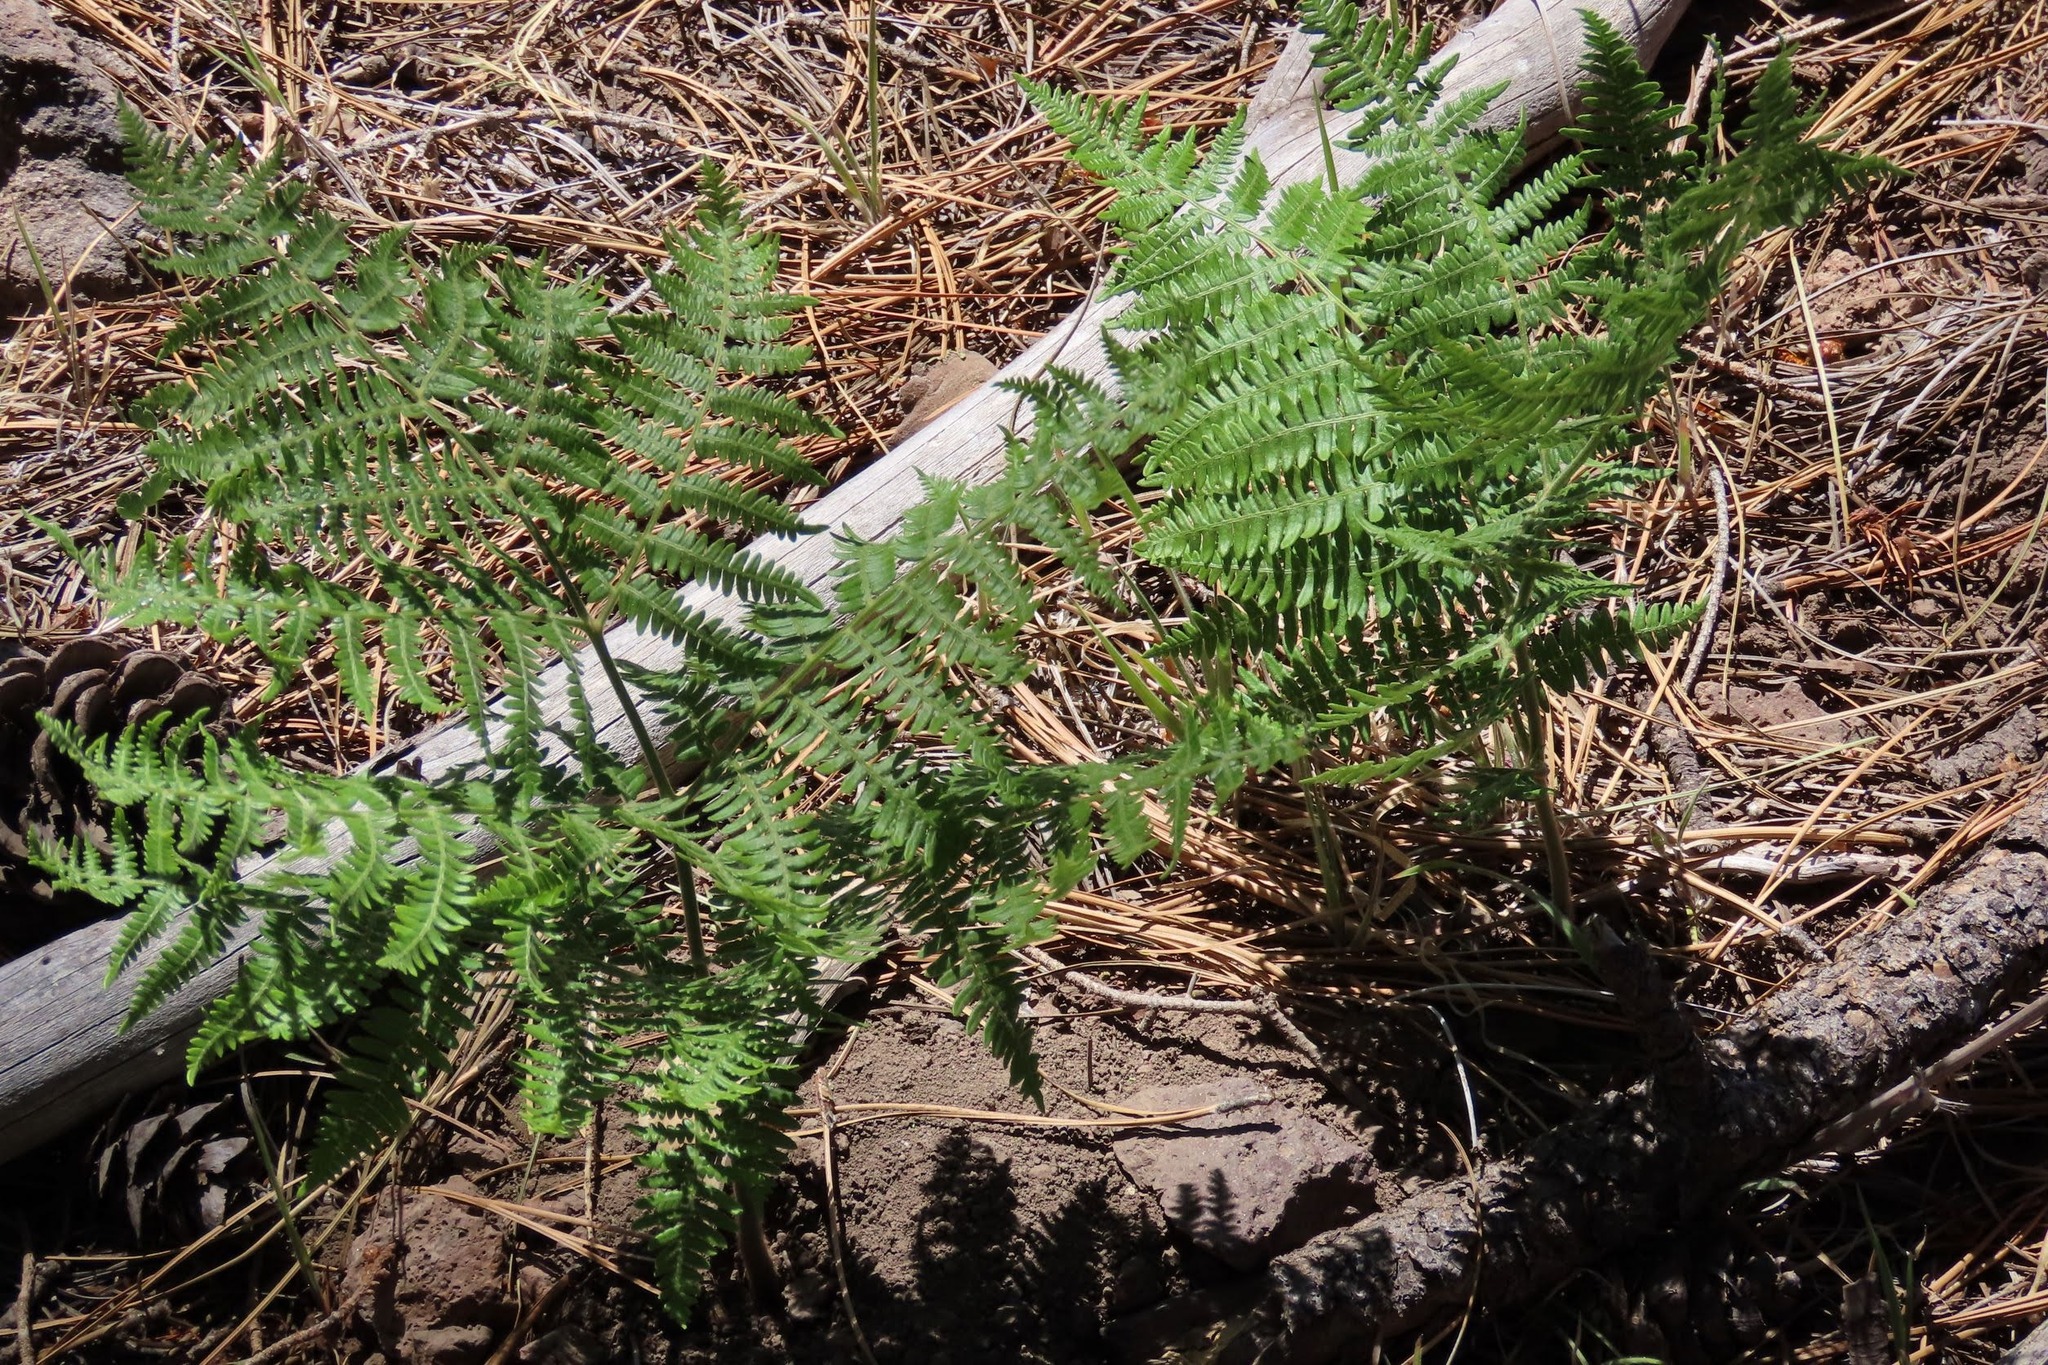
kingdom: Plantae
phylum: Tracheophyta
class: Polypodiopsida
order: Polypodiales
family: Dennstaedtiaceae
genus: Pteridium
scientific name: Pteridium aquilinum
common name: Bracken
